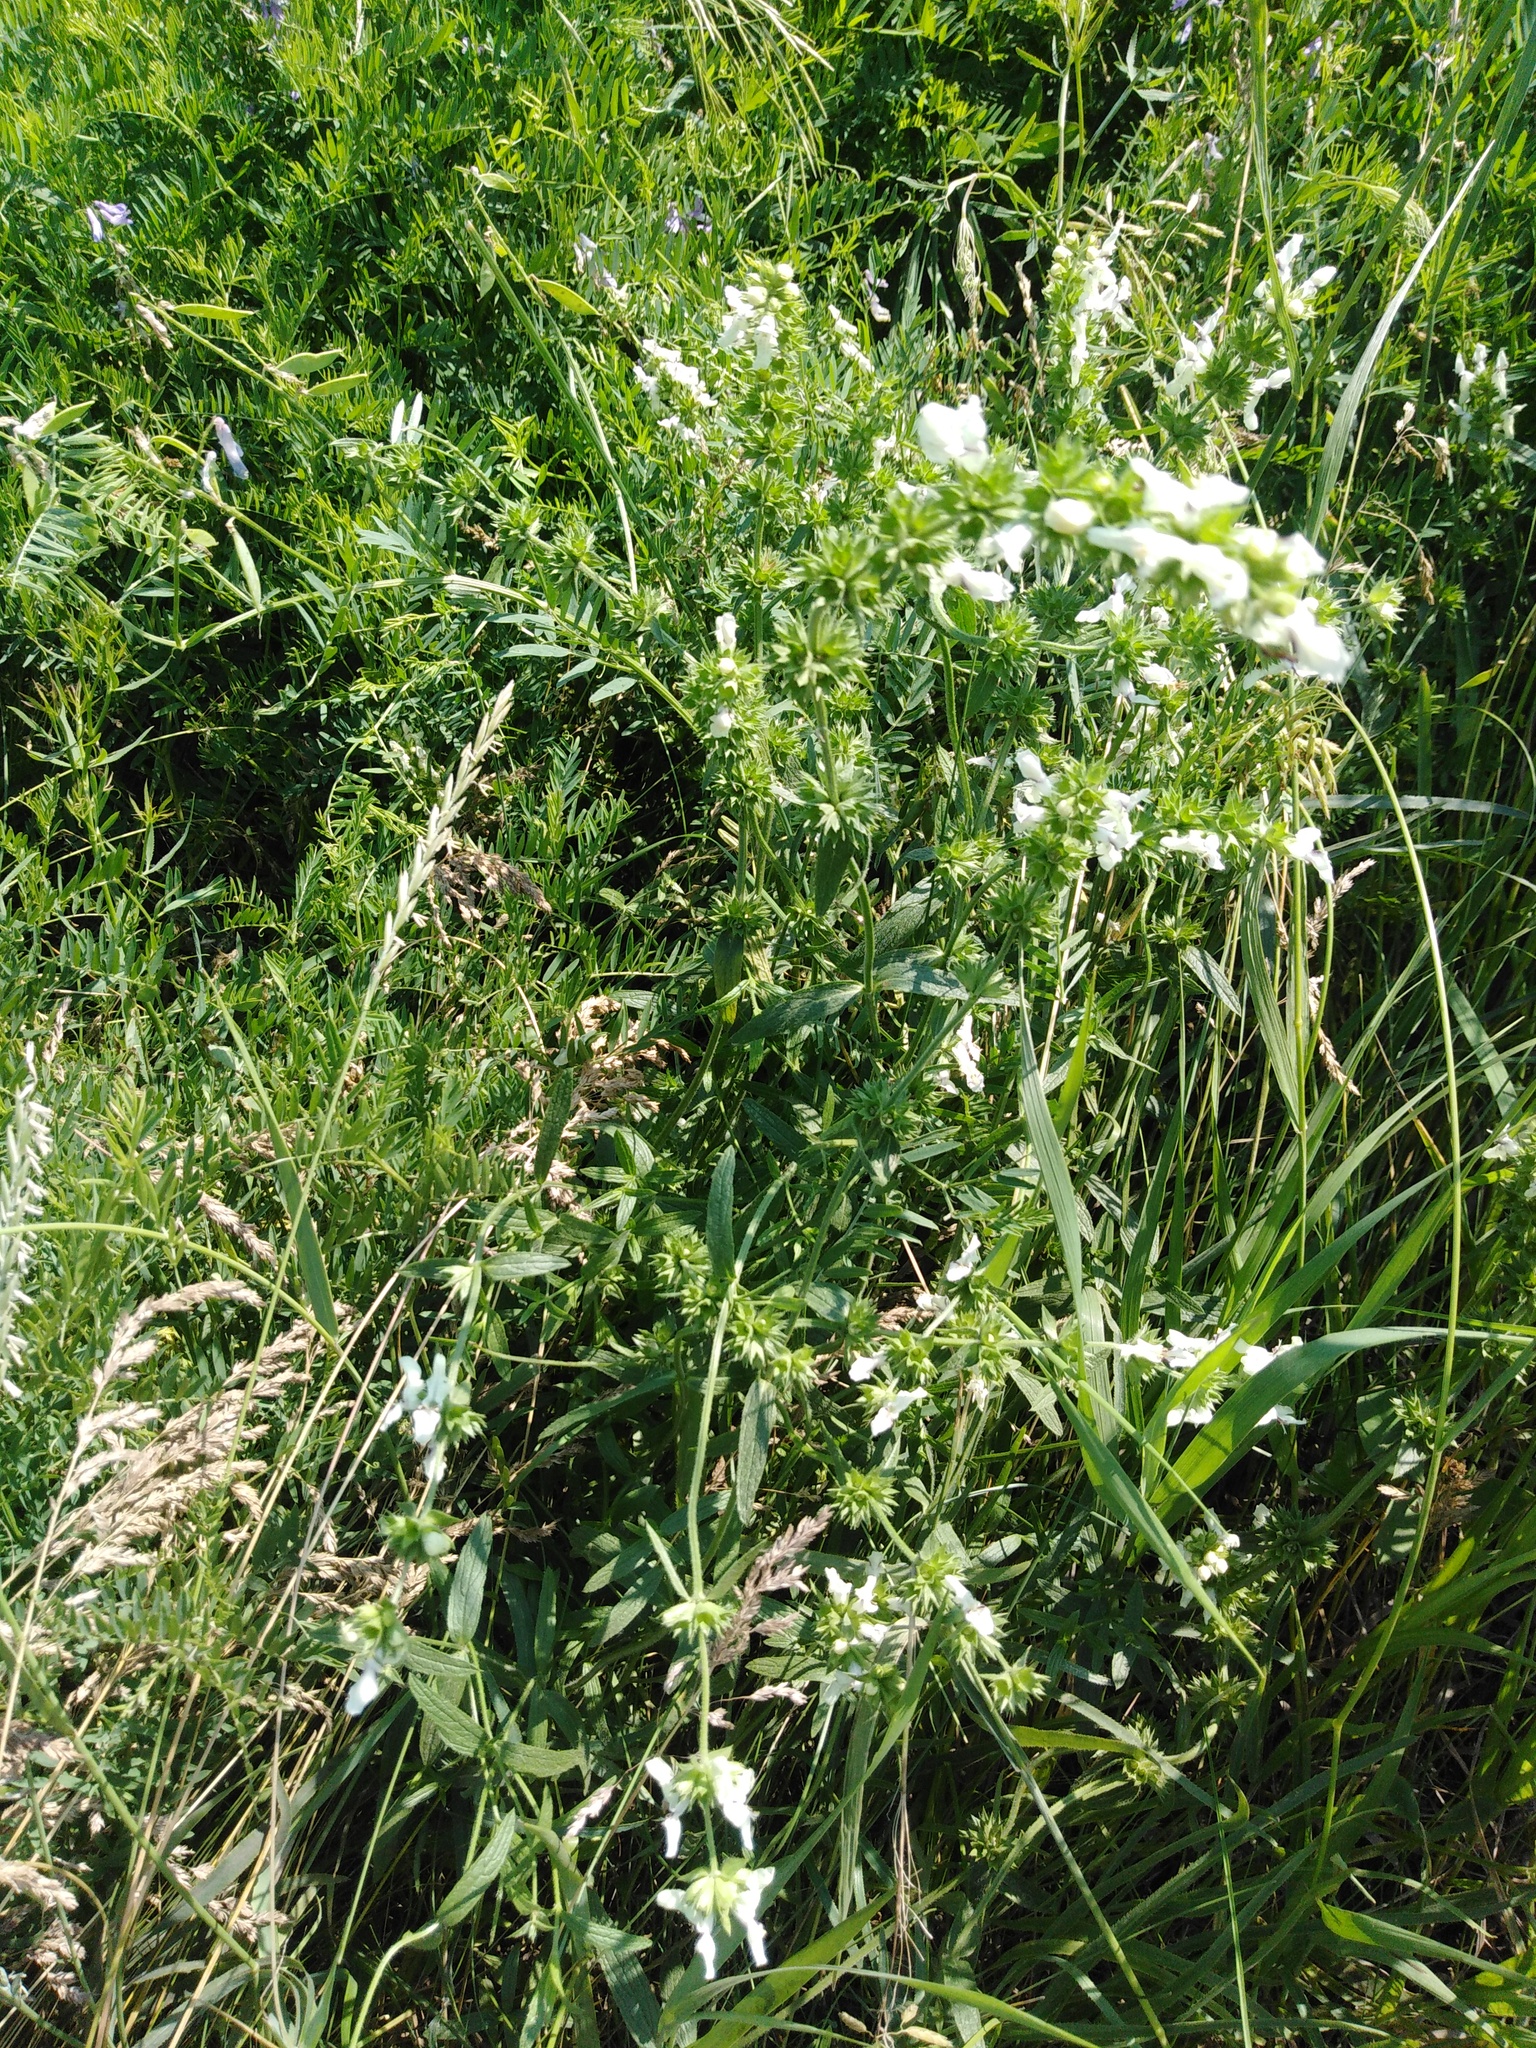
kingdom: Plantae
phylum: Tracheophyta
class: Magnoliopsida
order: Lamiales
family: Lamiaceae
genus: Stachys
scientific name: Stachys recta
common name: Perennial yellow-woundwort
